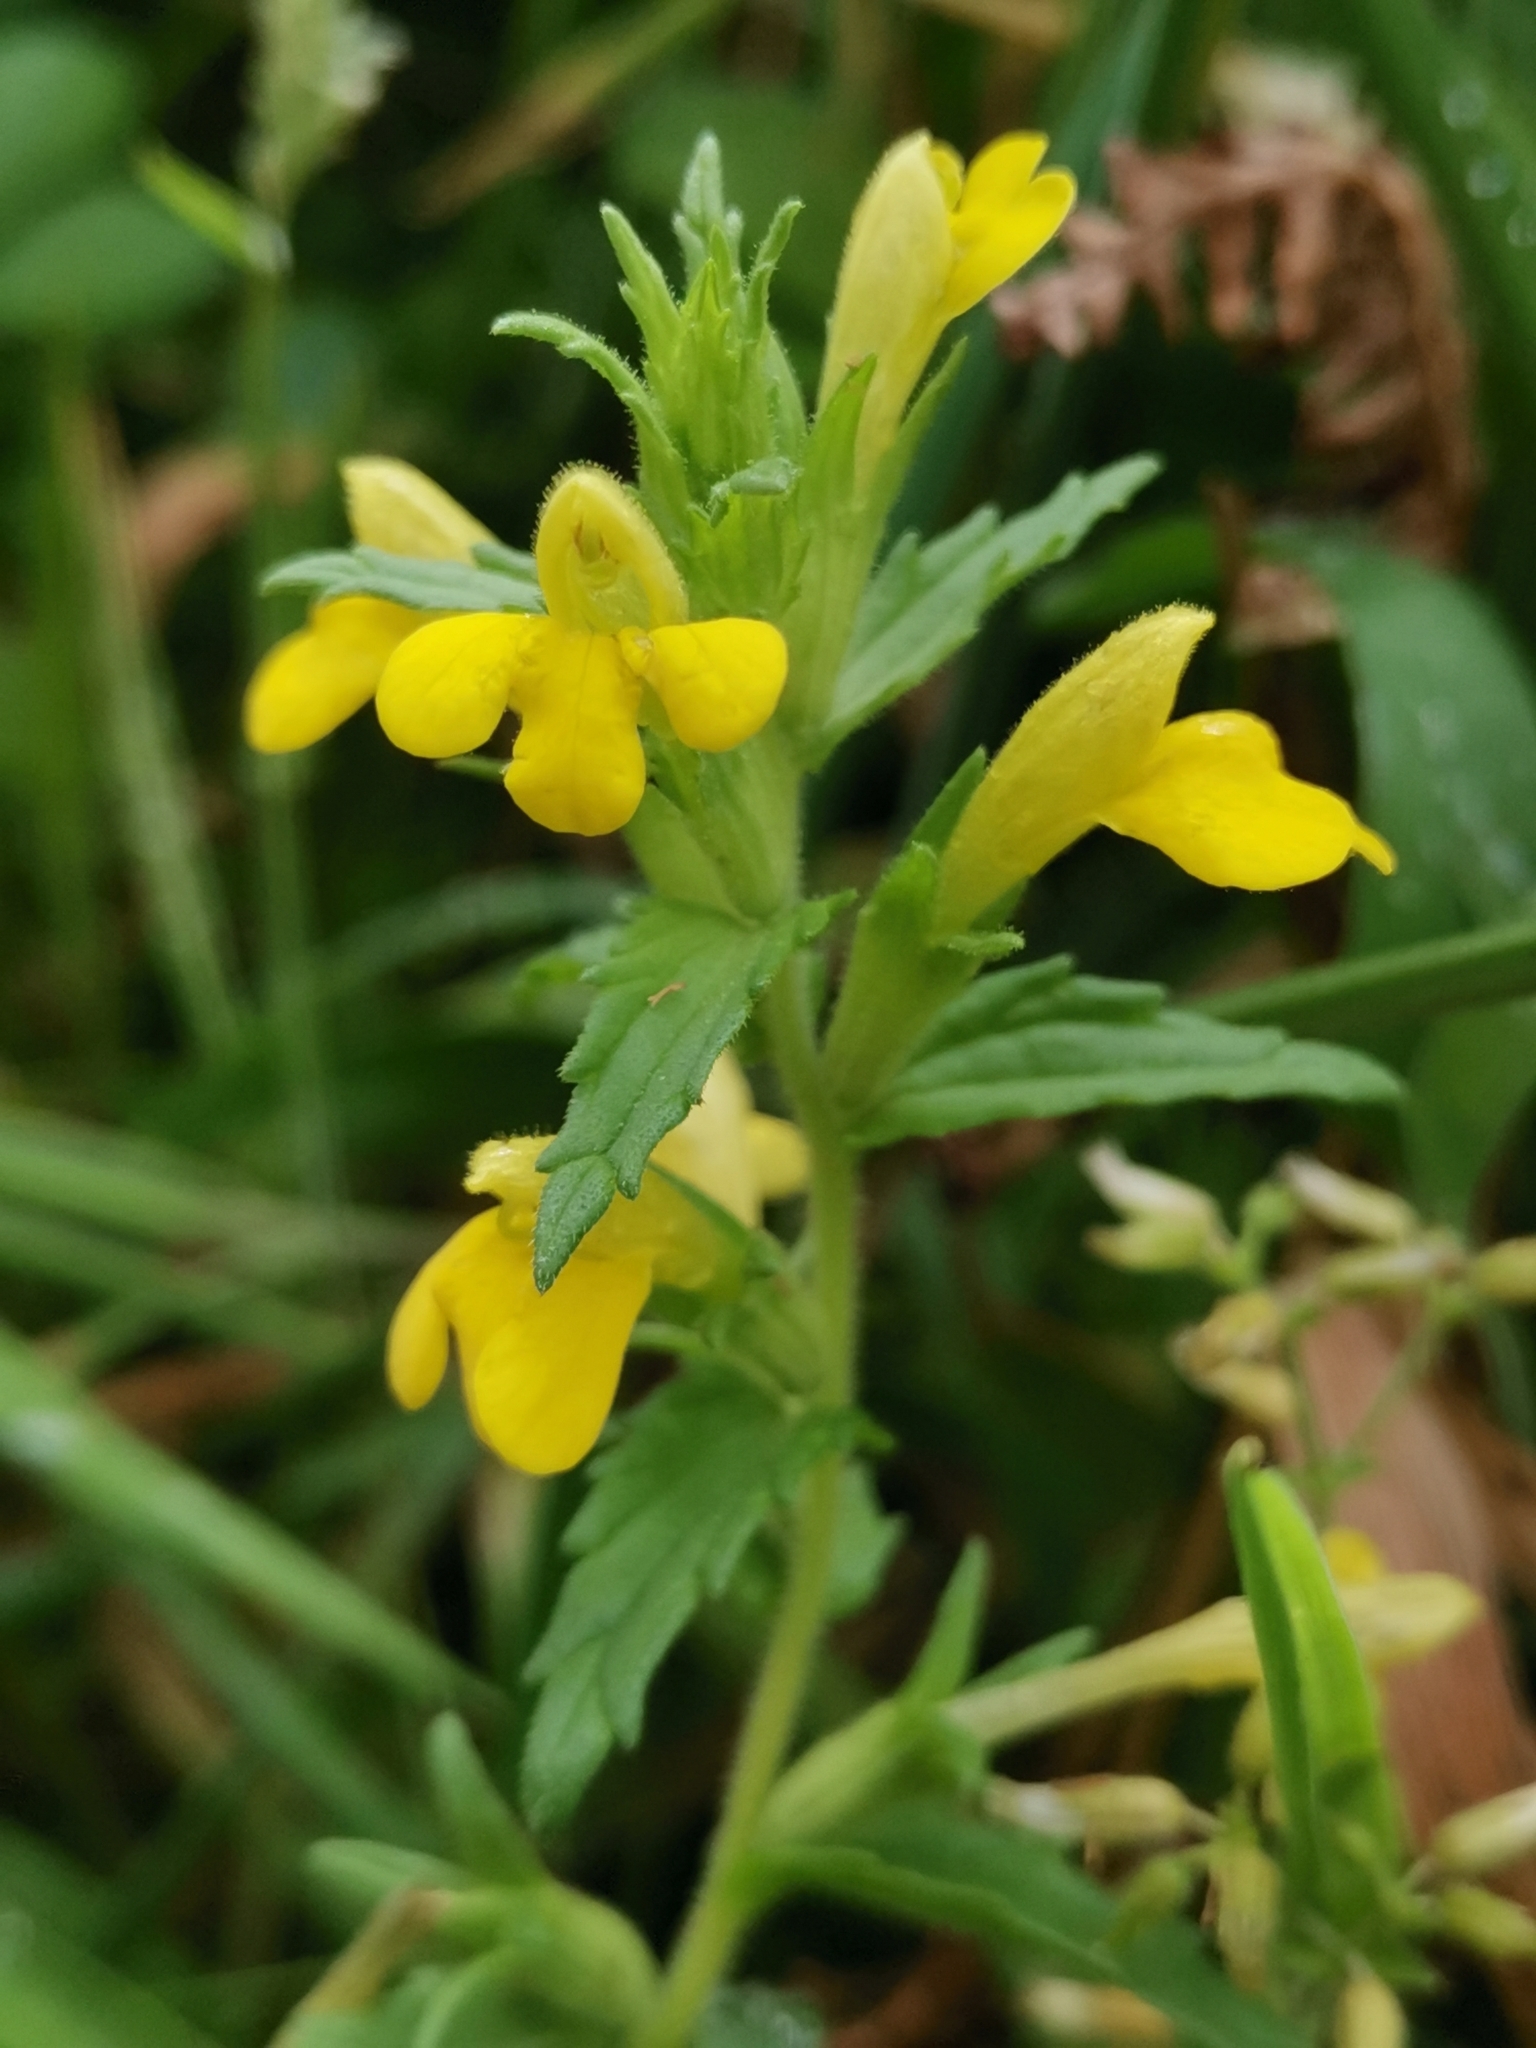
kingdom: Plantae
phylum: Tracheophyta
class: Magnoliopsida
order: Lamiales
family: Orobanchaceae
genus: Bellardia
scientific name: Bellardia viscosa
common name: Sticky parentucellia
